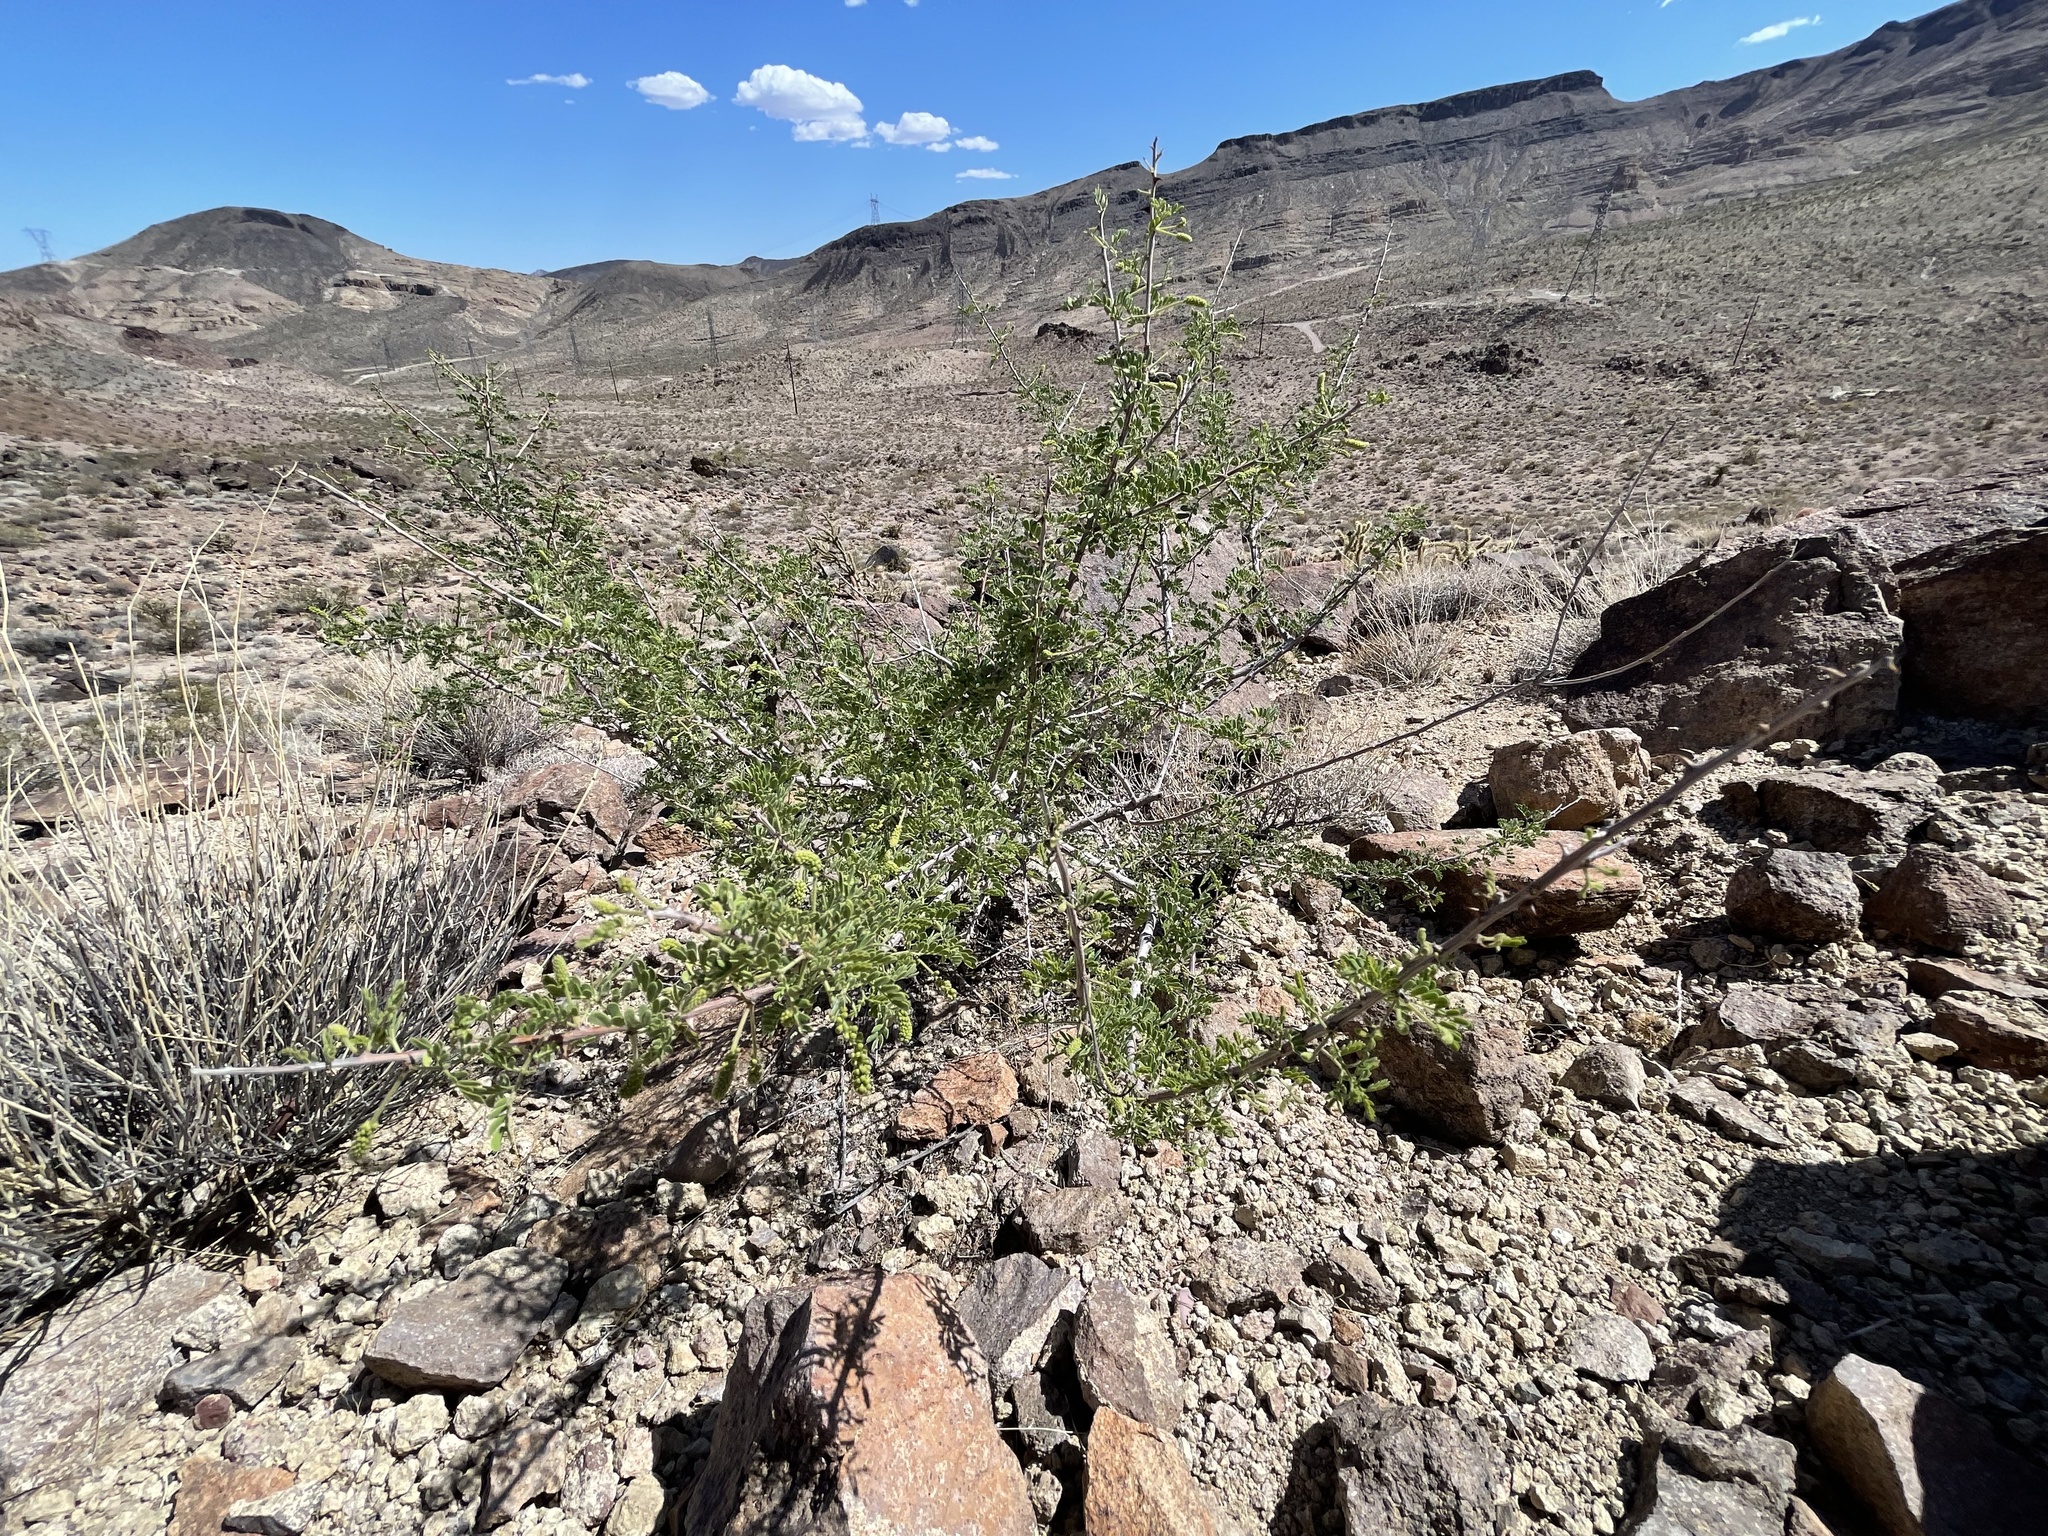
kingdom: Plantae
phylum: Tracheophyta
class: Magnoliopsida
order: Fabales
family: Fabaceae
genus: Senegalia
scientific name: Senegalia greggii
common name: Texas-mimosa
